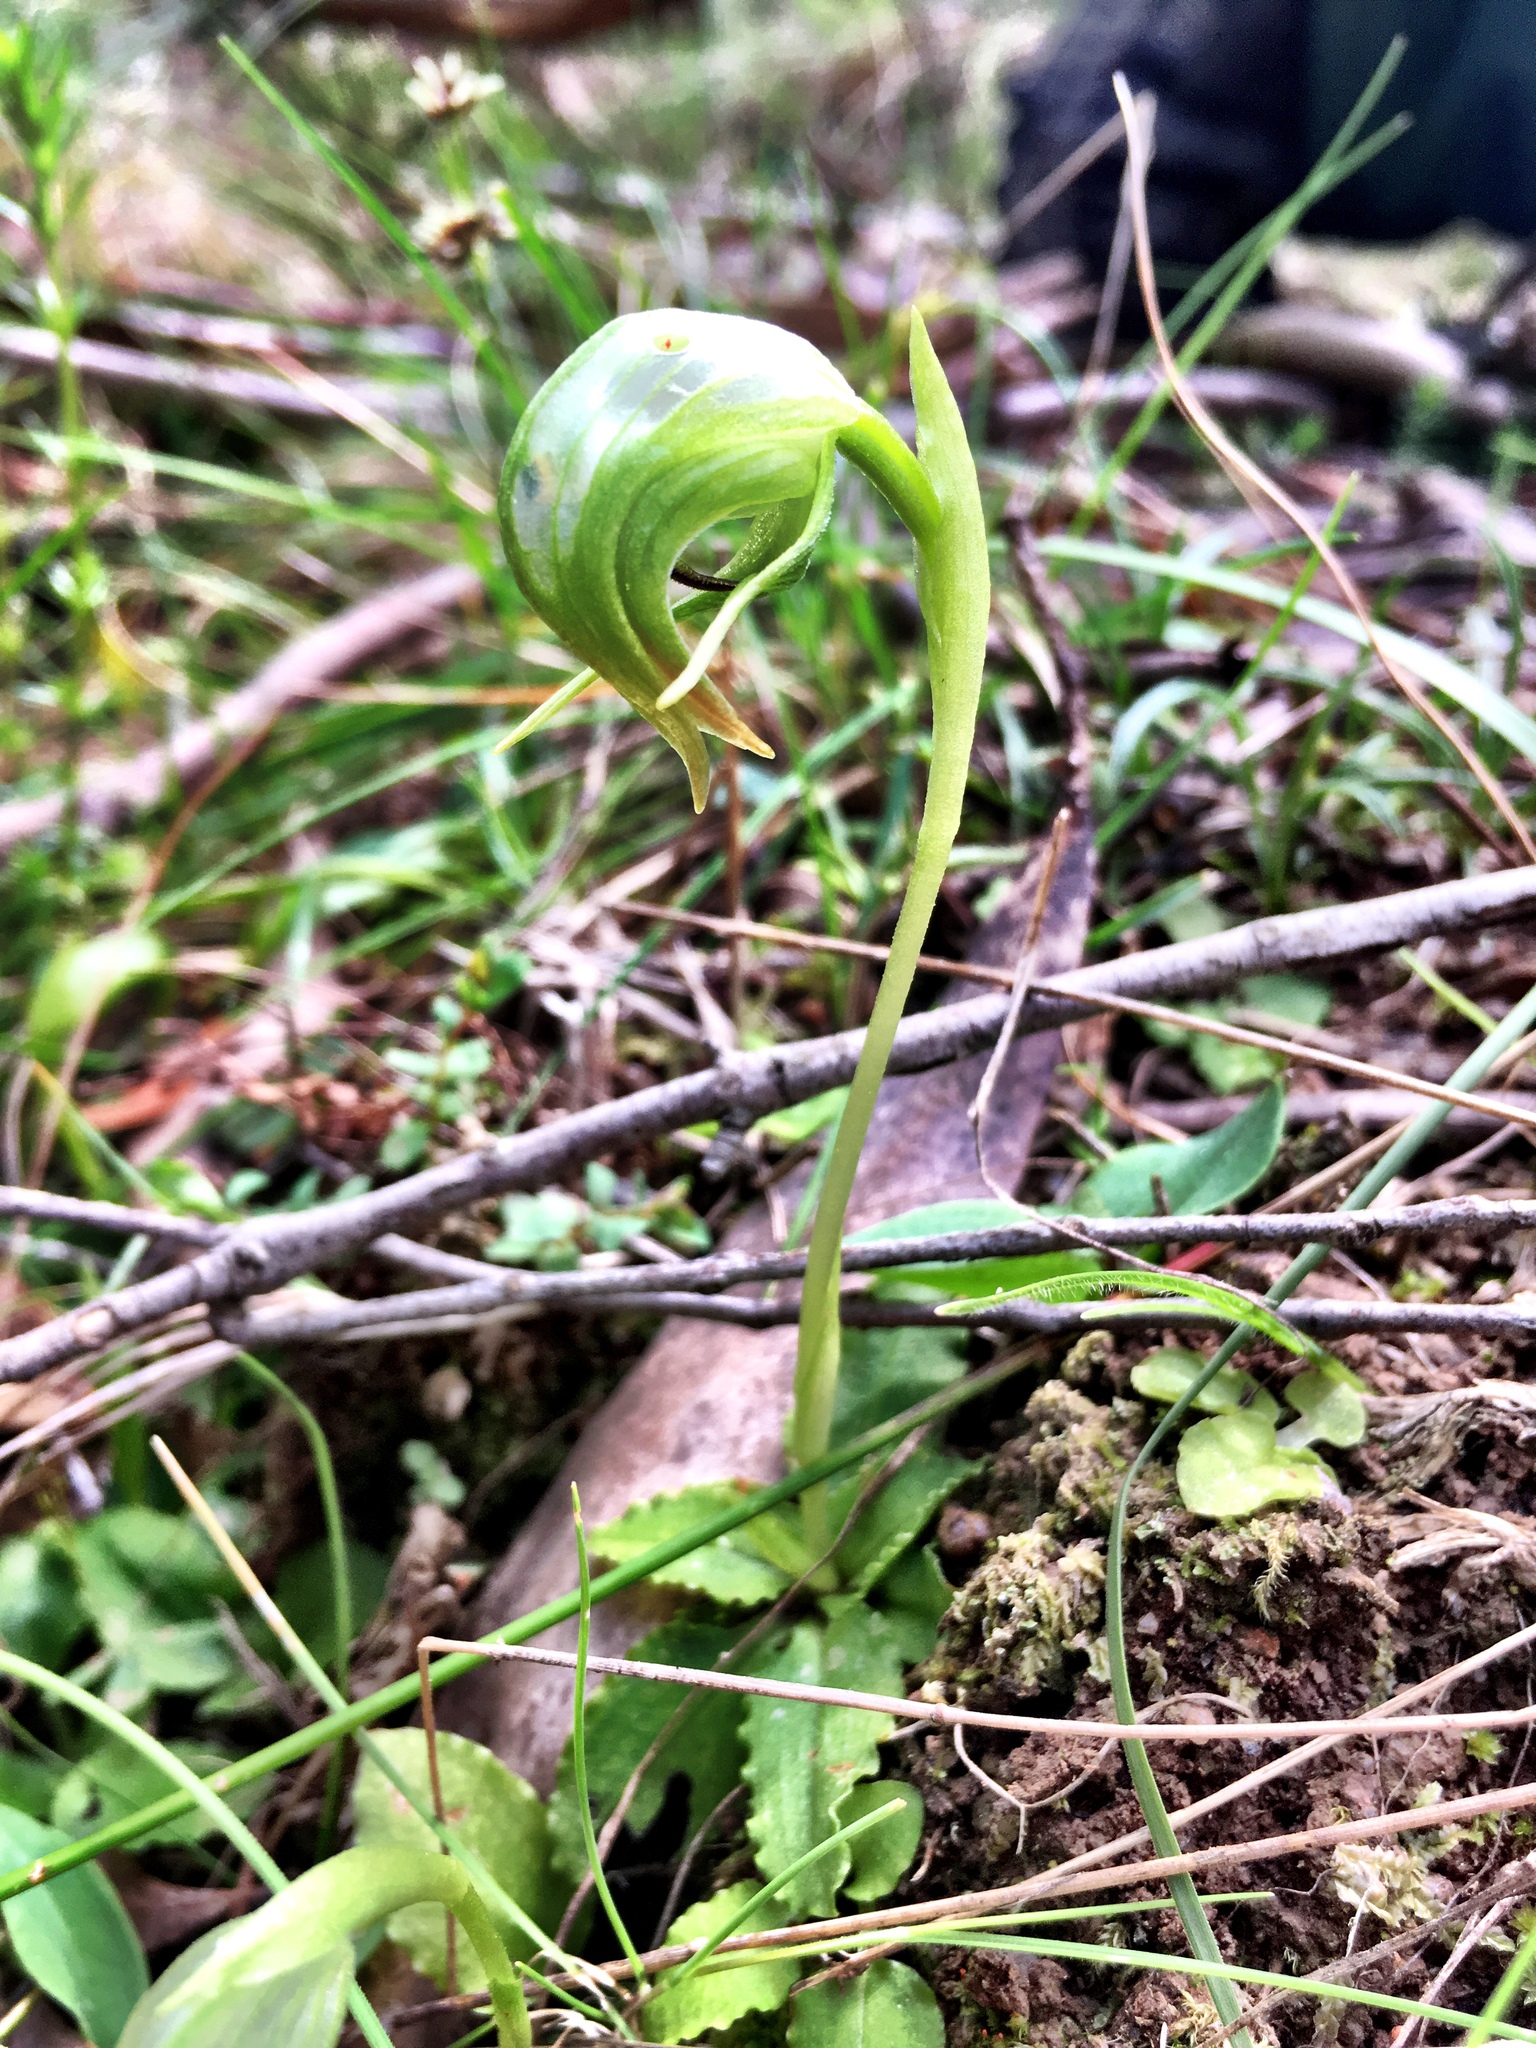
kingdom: Plantae
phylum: Tracheophyta
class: Liliopsida
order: Asparagales
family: Orchidaceae
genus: Pterostylis
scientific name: Pterostylis nutans
